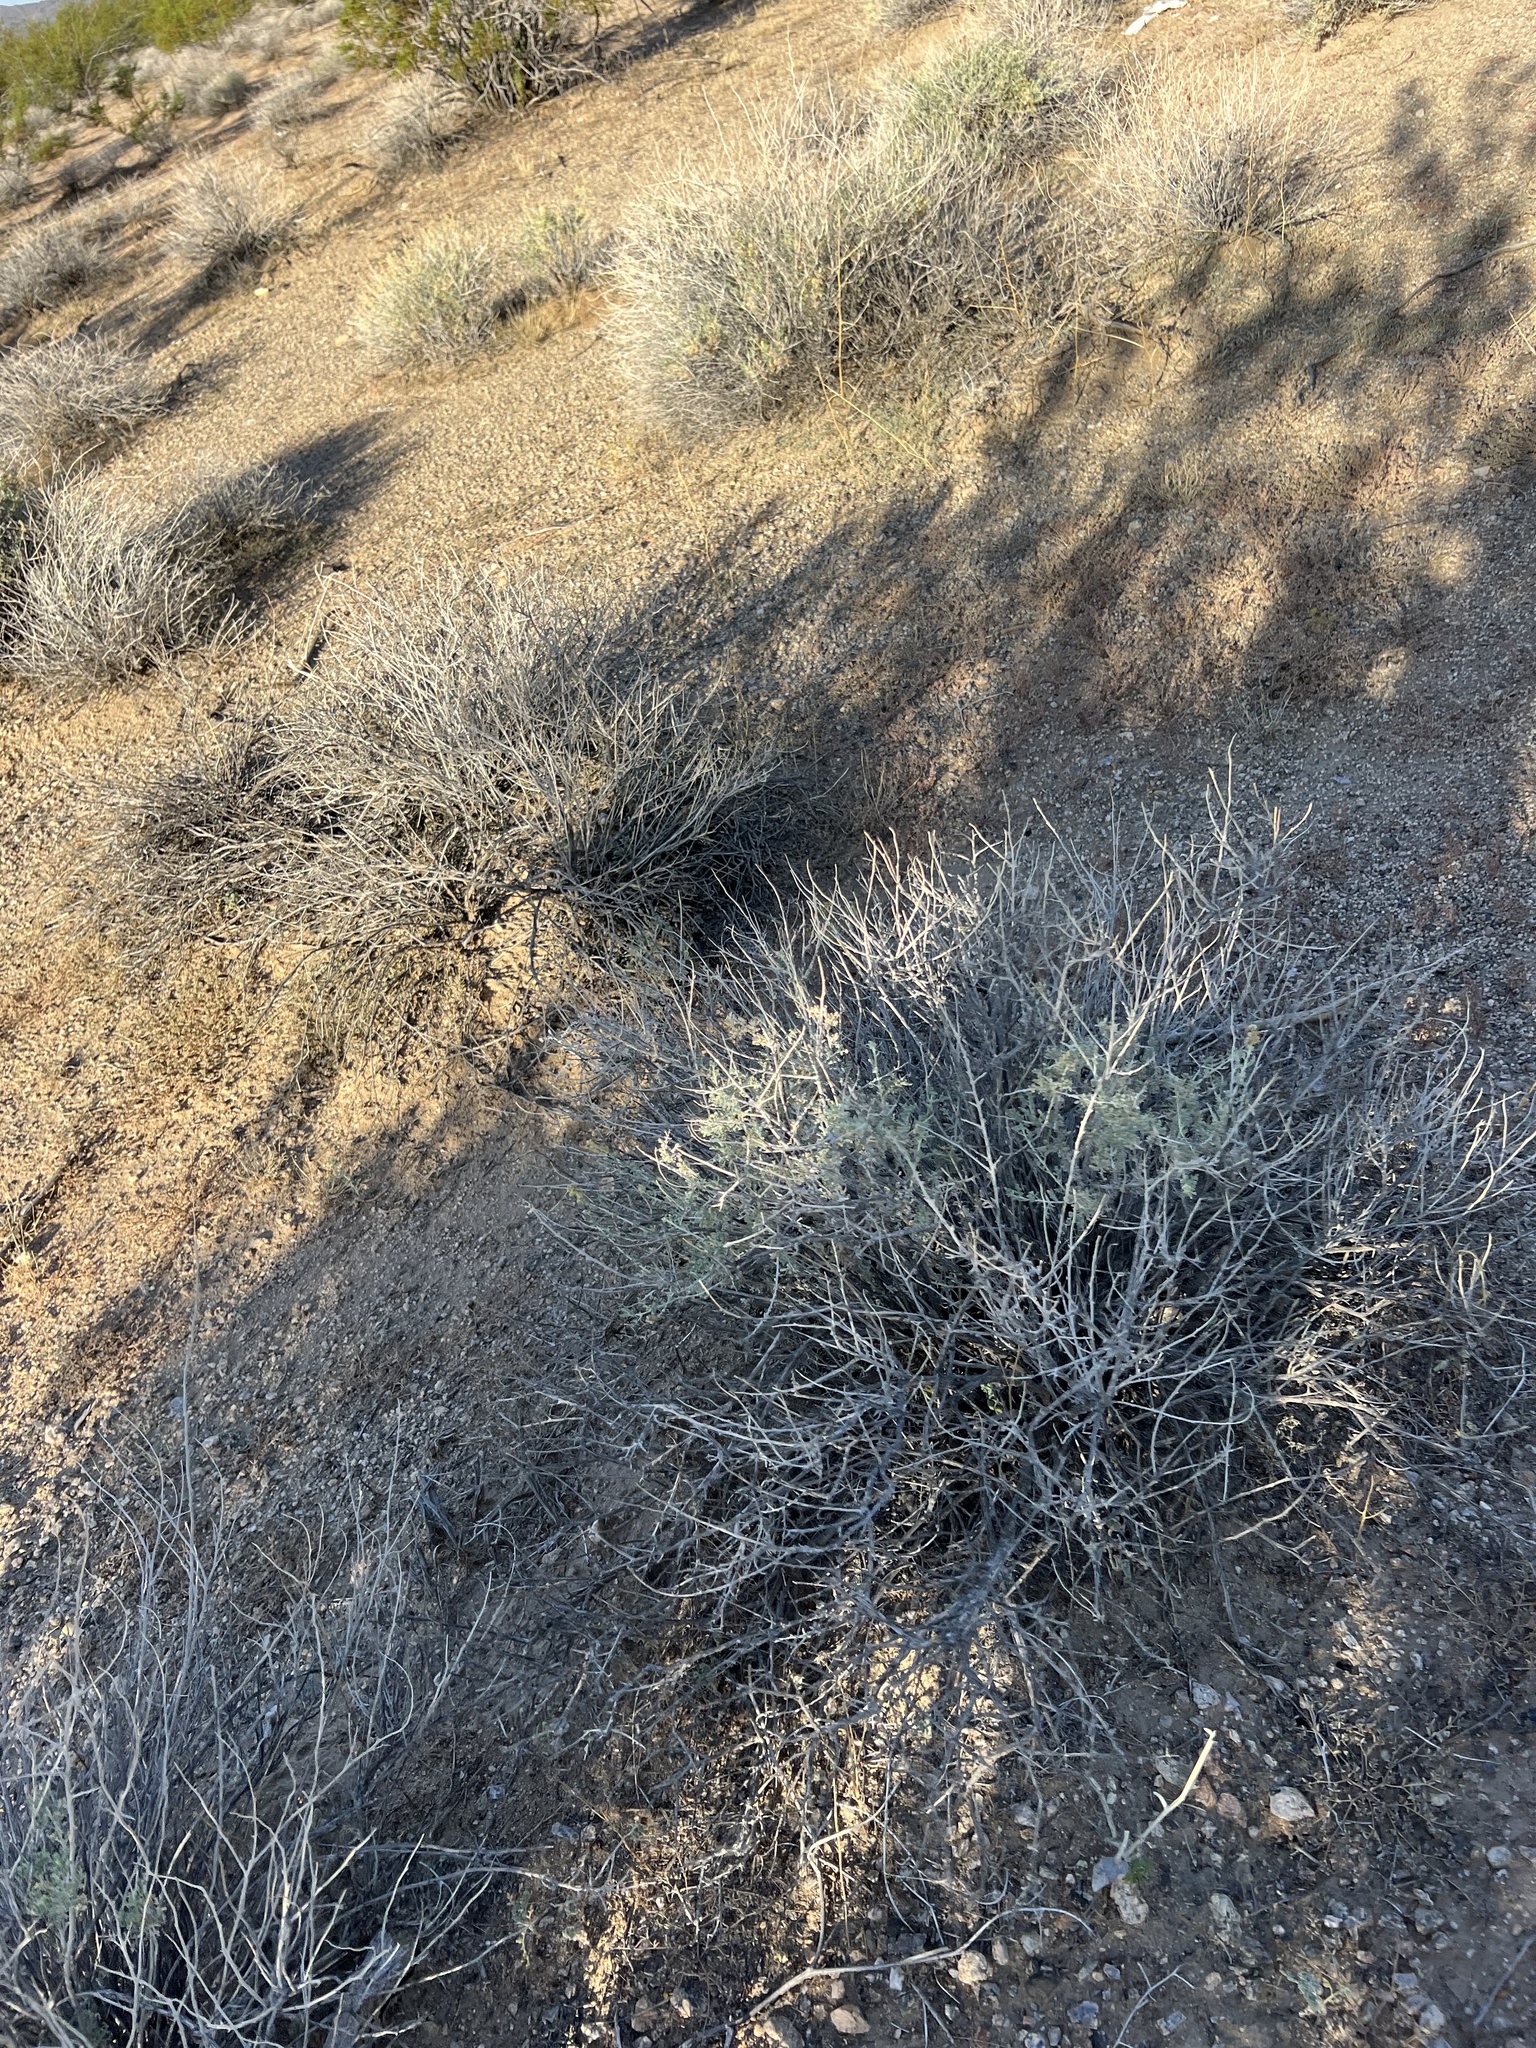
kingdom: Plantae
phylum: Tracheophyta
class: Magnoliopsida
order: Asterales
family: Asteraceae
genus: Ambrosia
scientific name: Ambrosia dumosa
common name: Bur-sage
